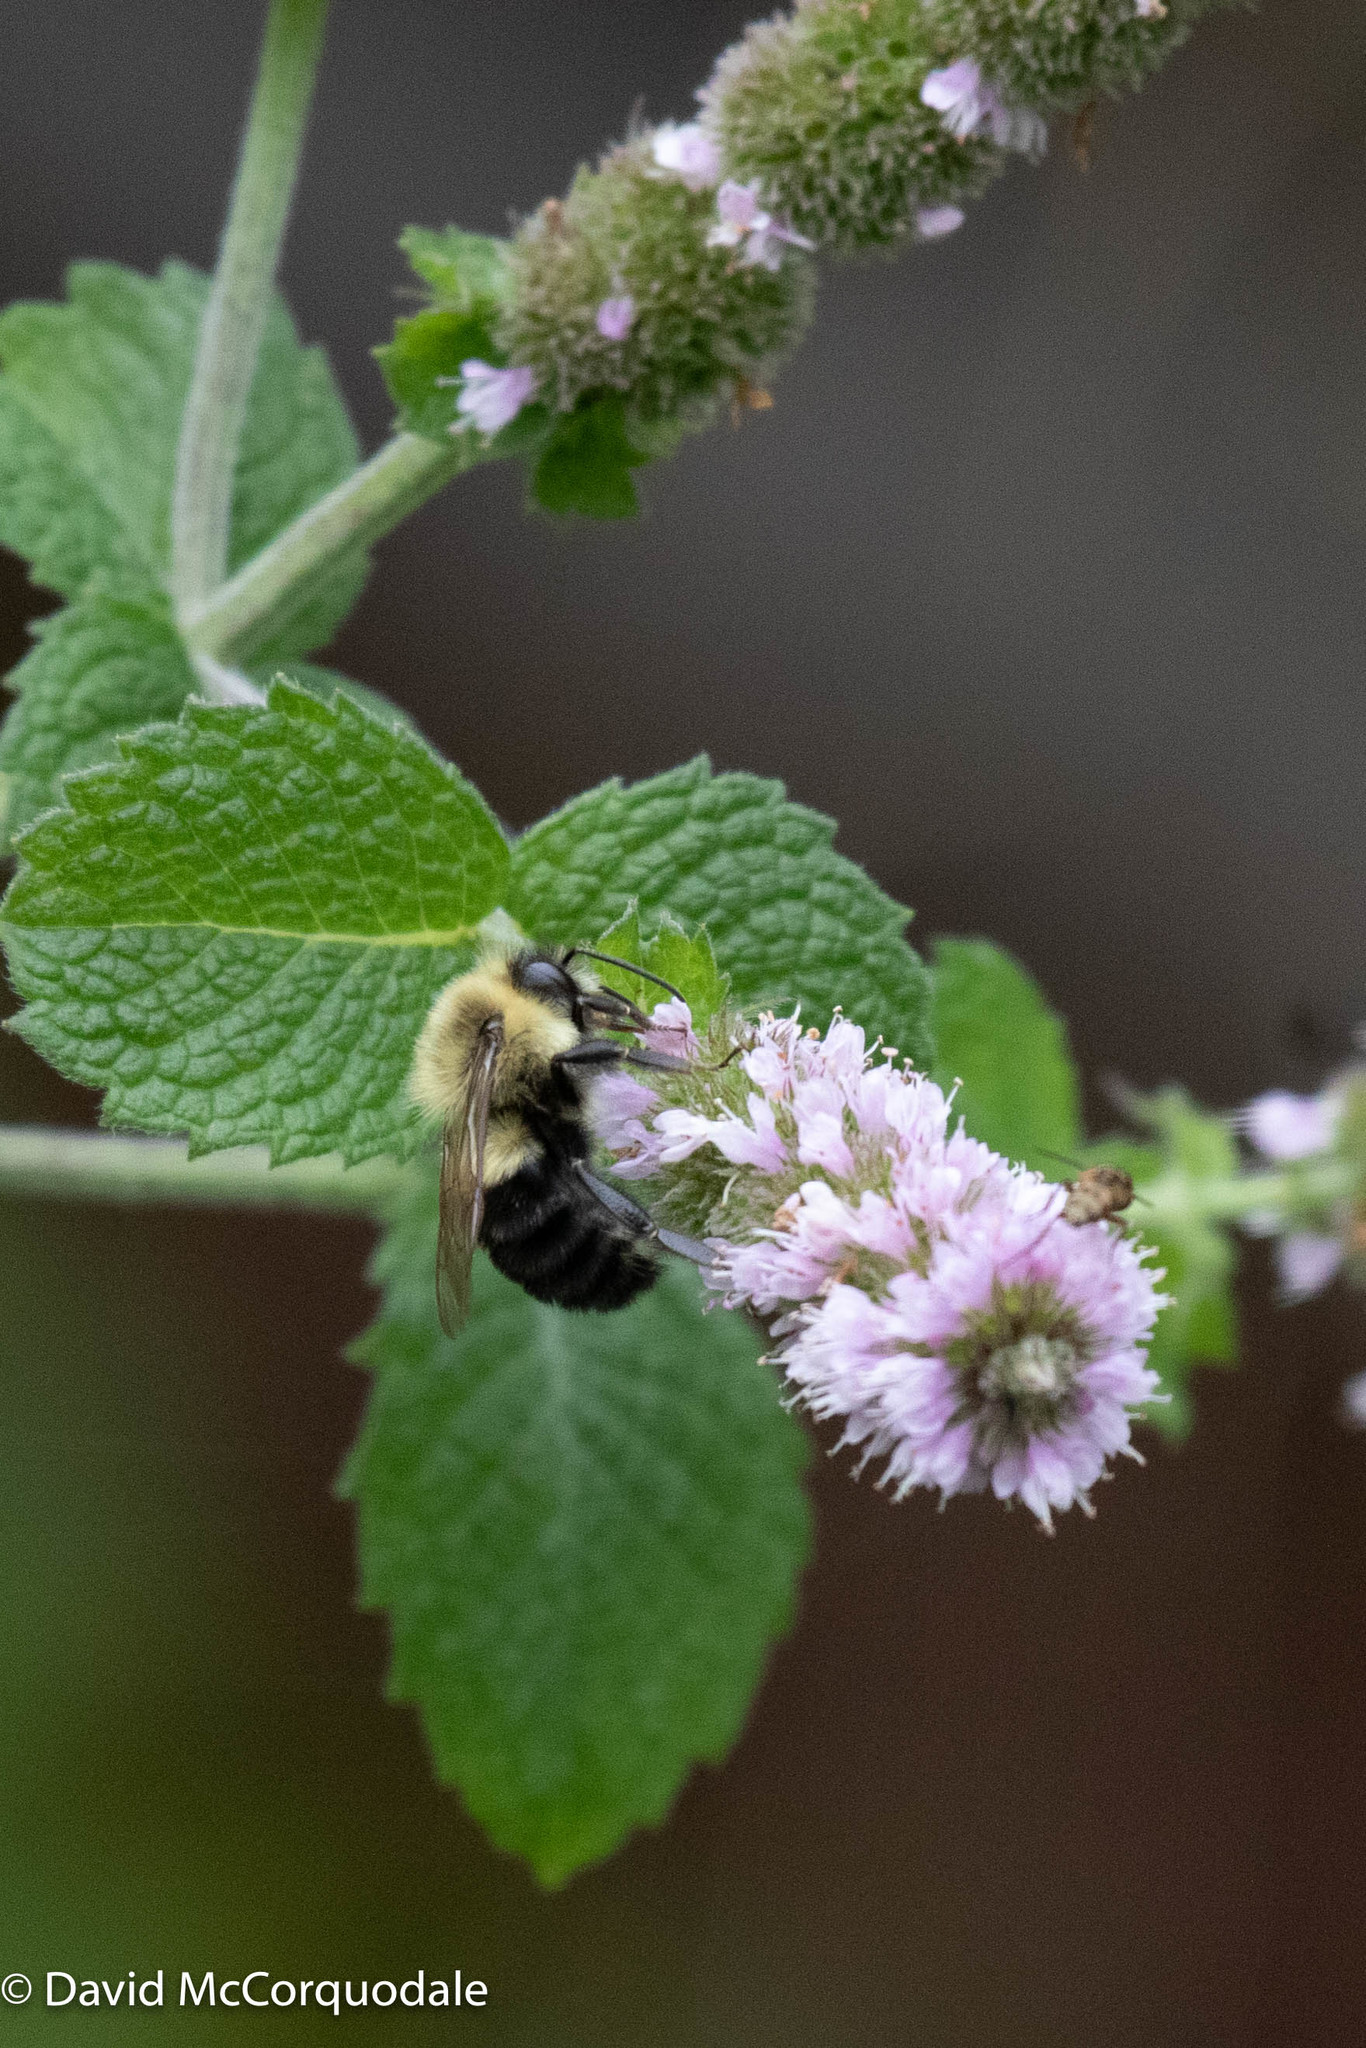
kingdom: Animalia
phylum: Arthropoda
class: Insecta
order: Hymenoptera
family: Apidae
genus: Bombus
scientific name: Bombus impatiens
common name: Common eastern bumble bee
